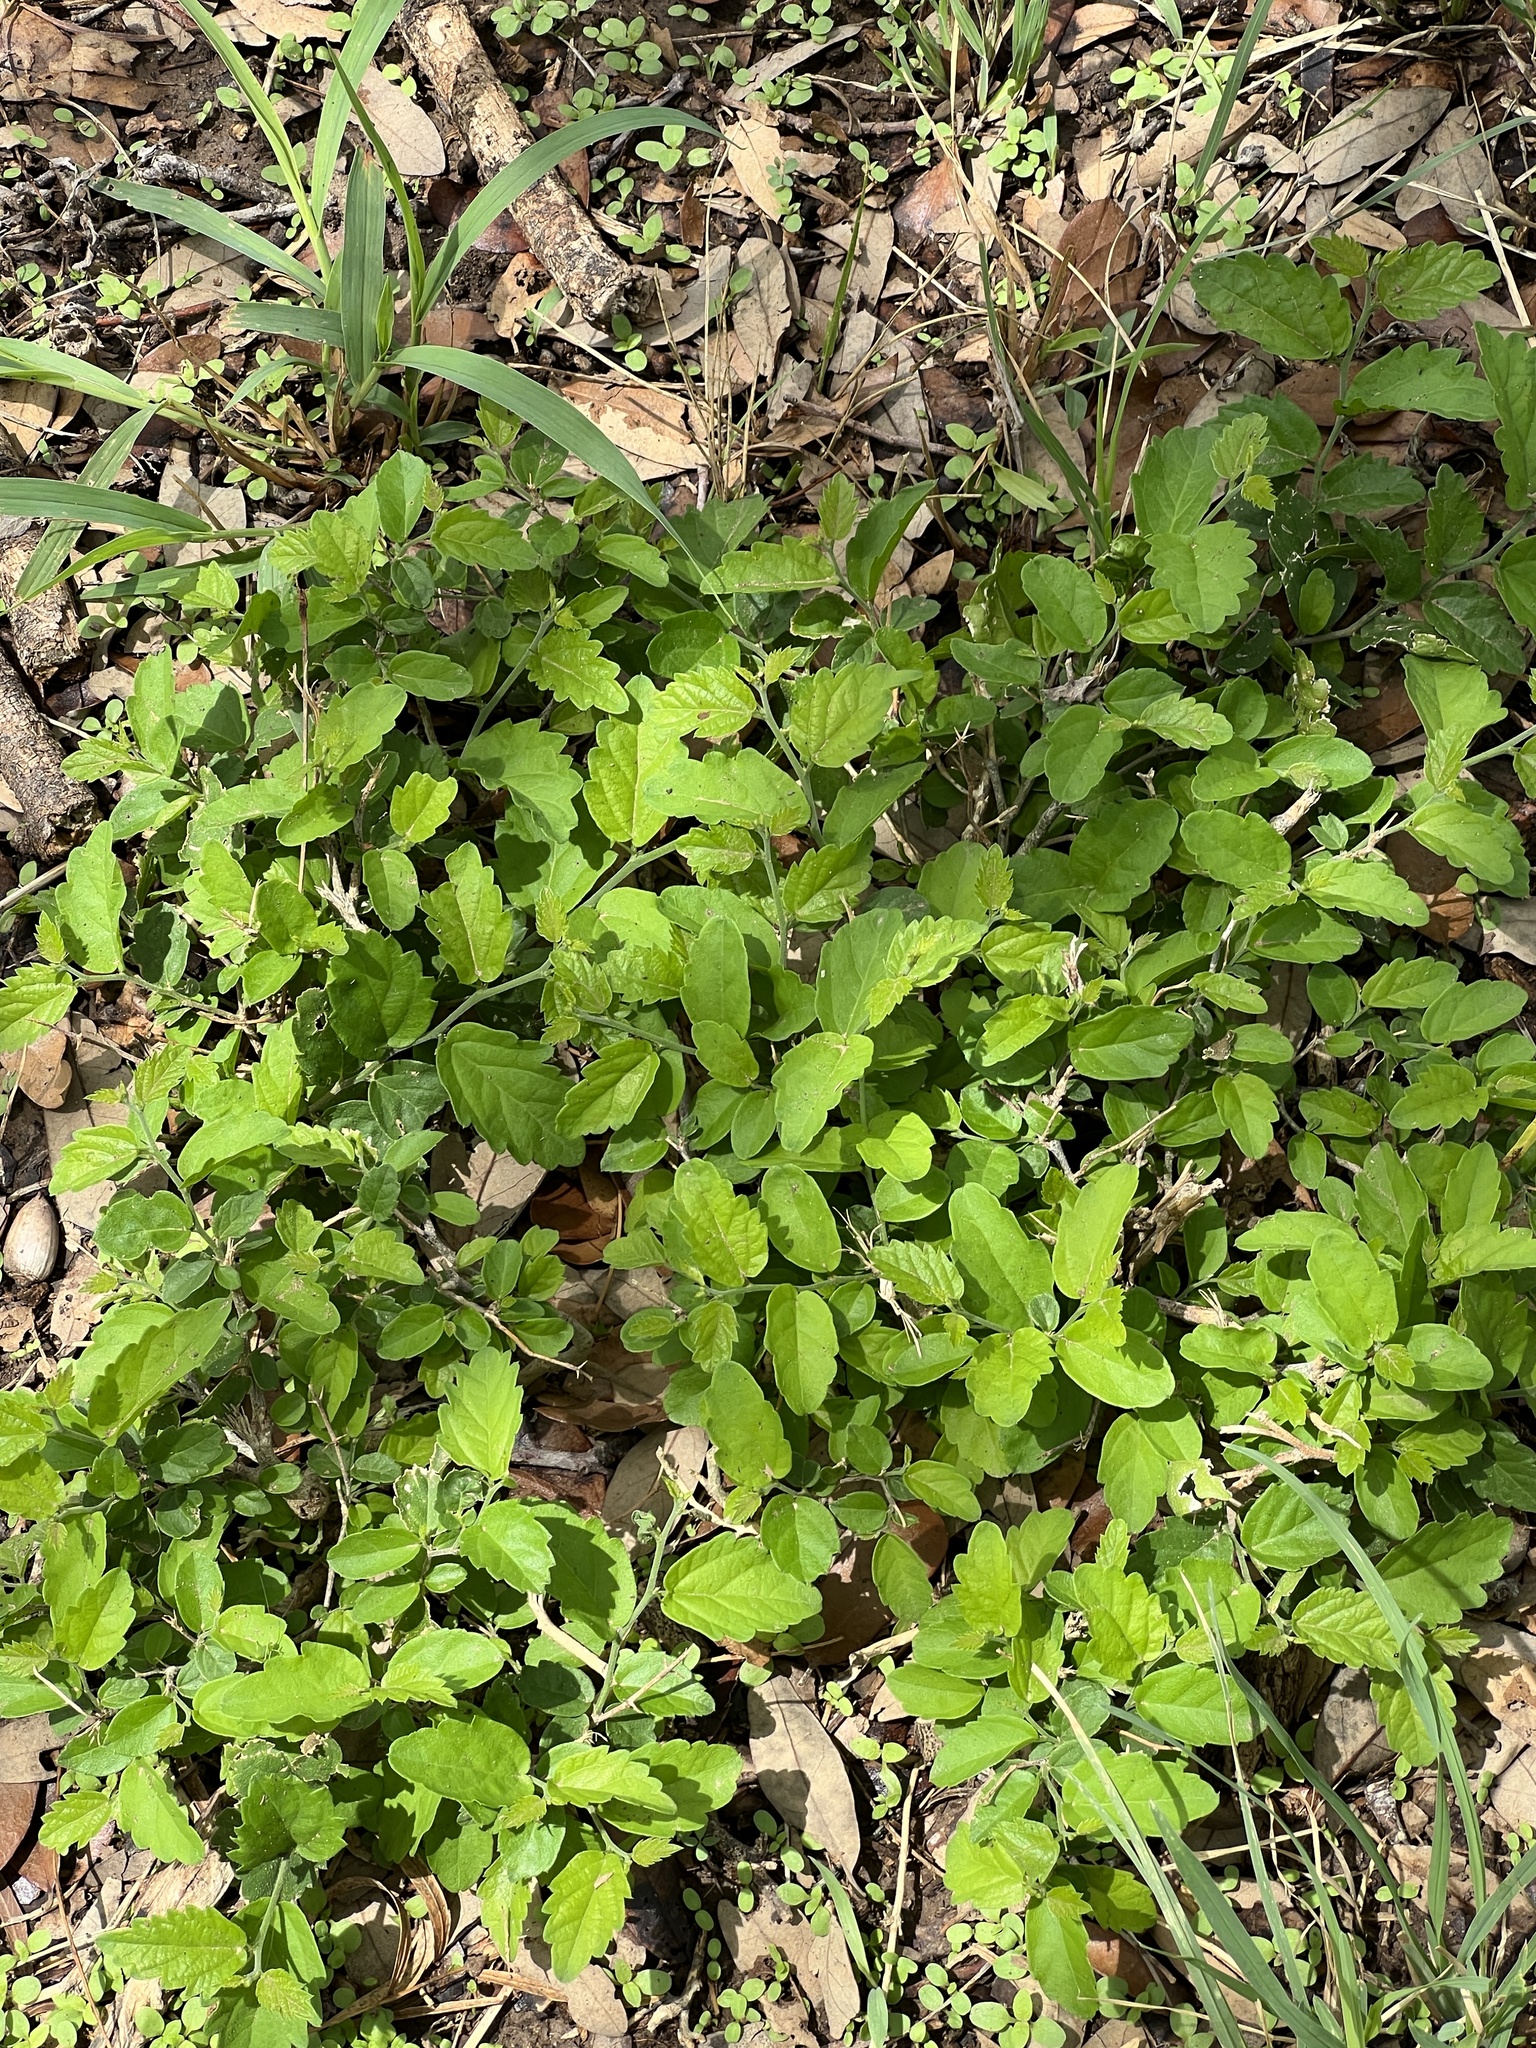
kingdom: Plantae
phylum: Tracheophyta
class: Magnoliopsida
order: Rosales
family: Cannabaceae
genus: Celtis
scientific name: Celtis pallida
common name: Desert hackberry
